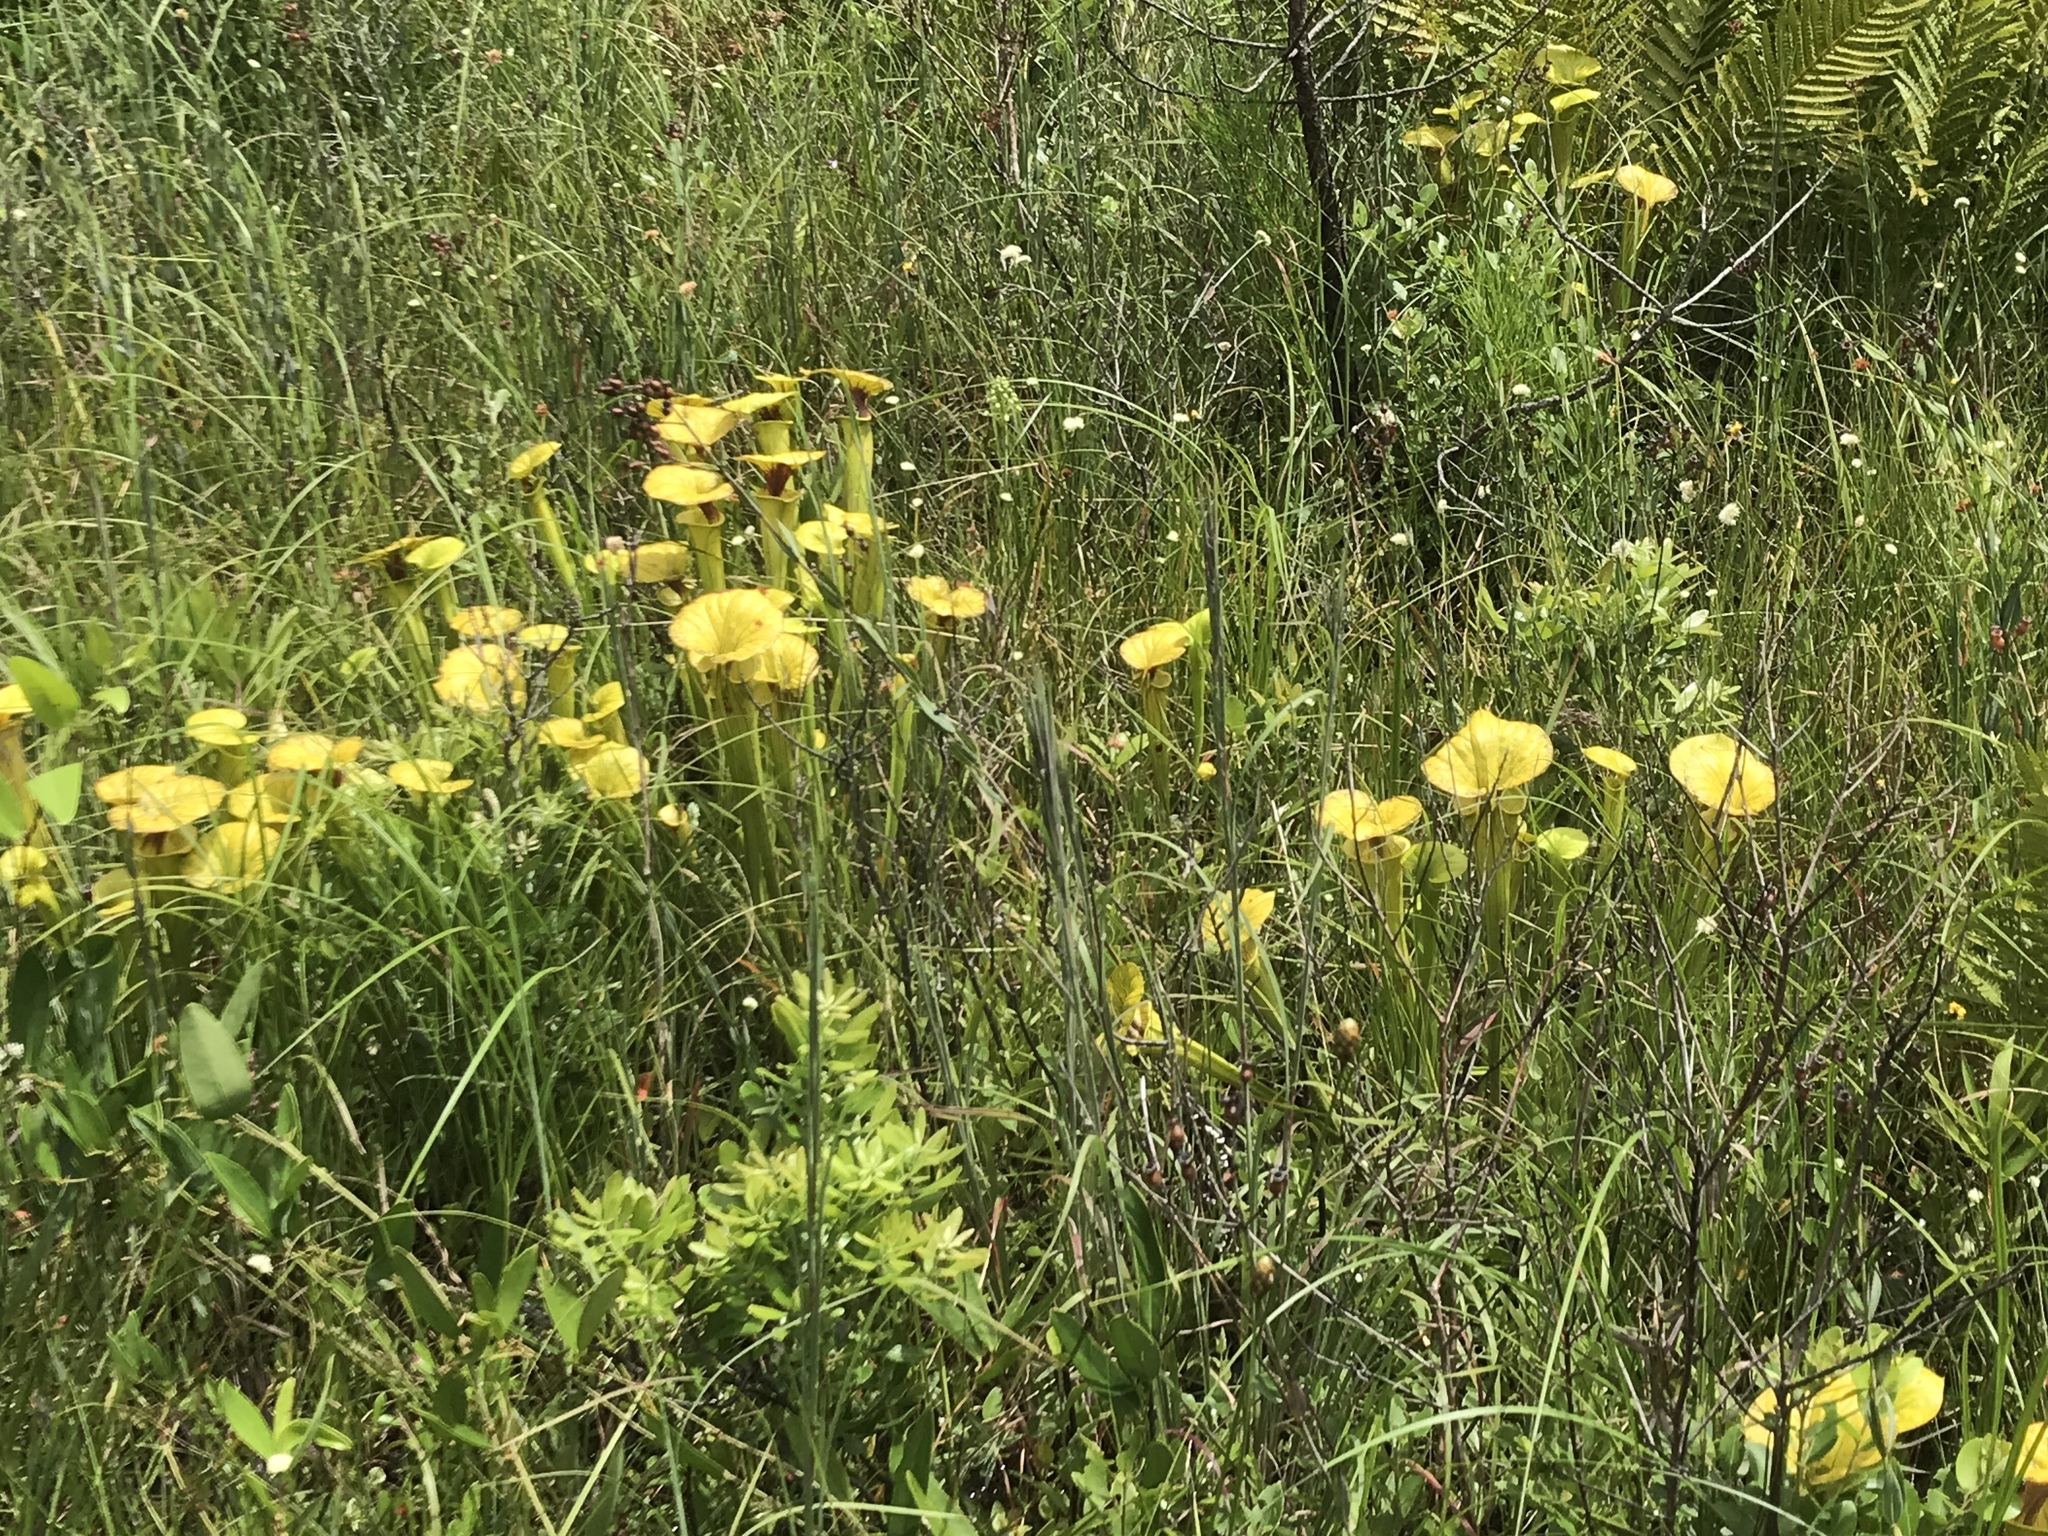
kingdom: Plantae
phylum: Tracheophyta
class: Magnoliopsida
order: Ericales
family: Sarraceniaceae
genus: Sarracenia
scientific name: Sarracenia flava
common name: Trumpets
